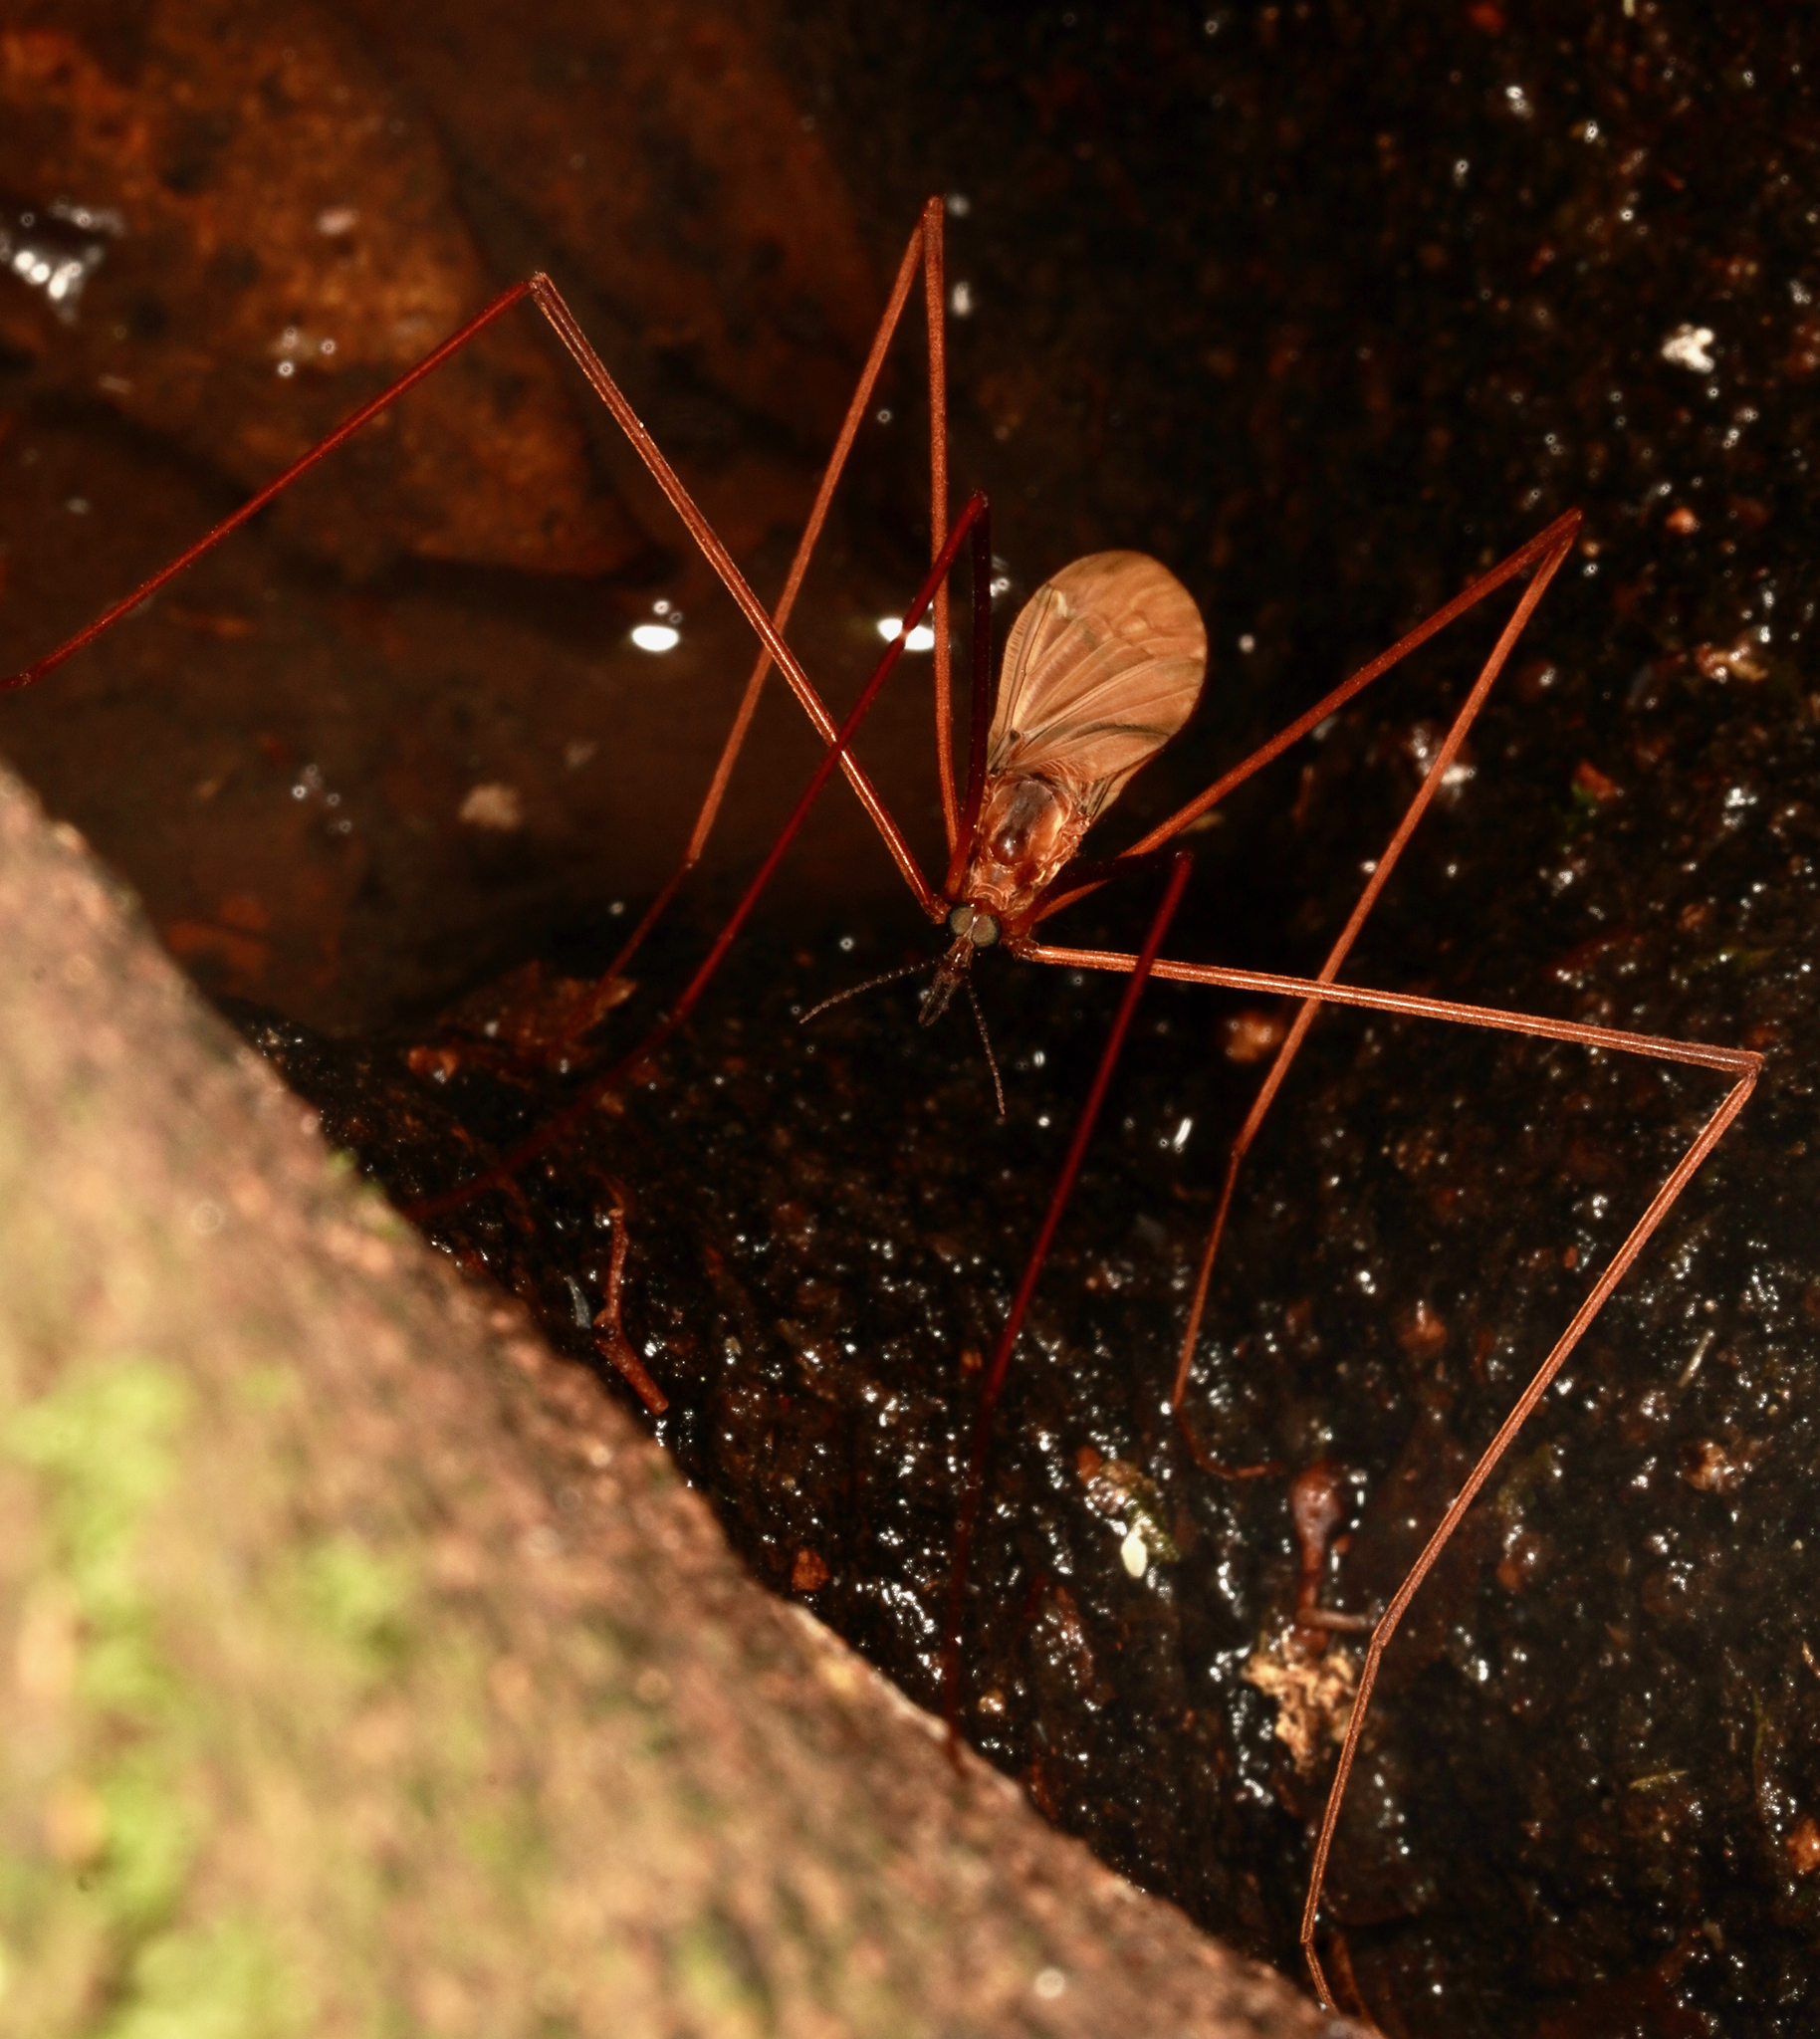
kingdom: Animalia
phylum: Arthropoda
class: Insecta
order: Diptera
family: Limoniidae
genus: Sigmatomera
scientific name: Sigmatomera rufa
